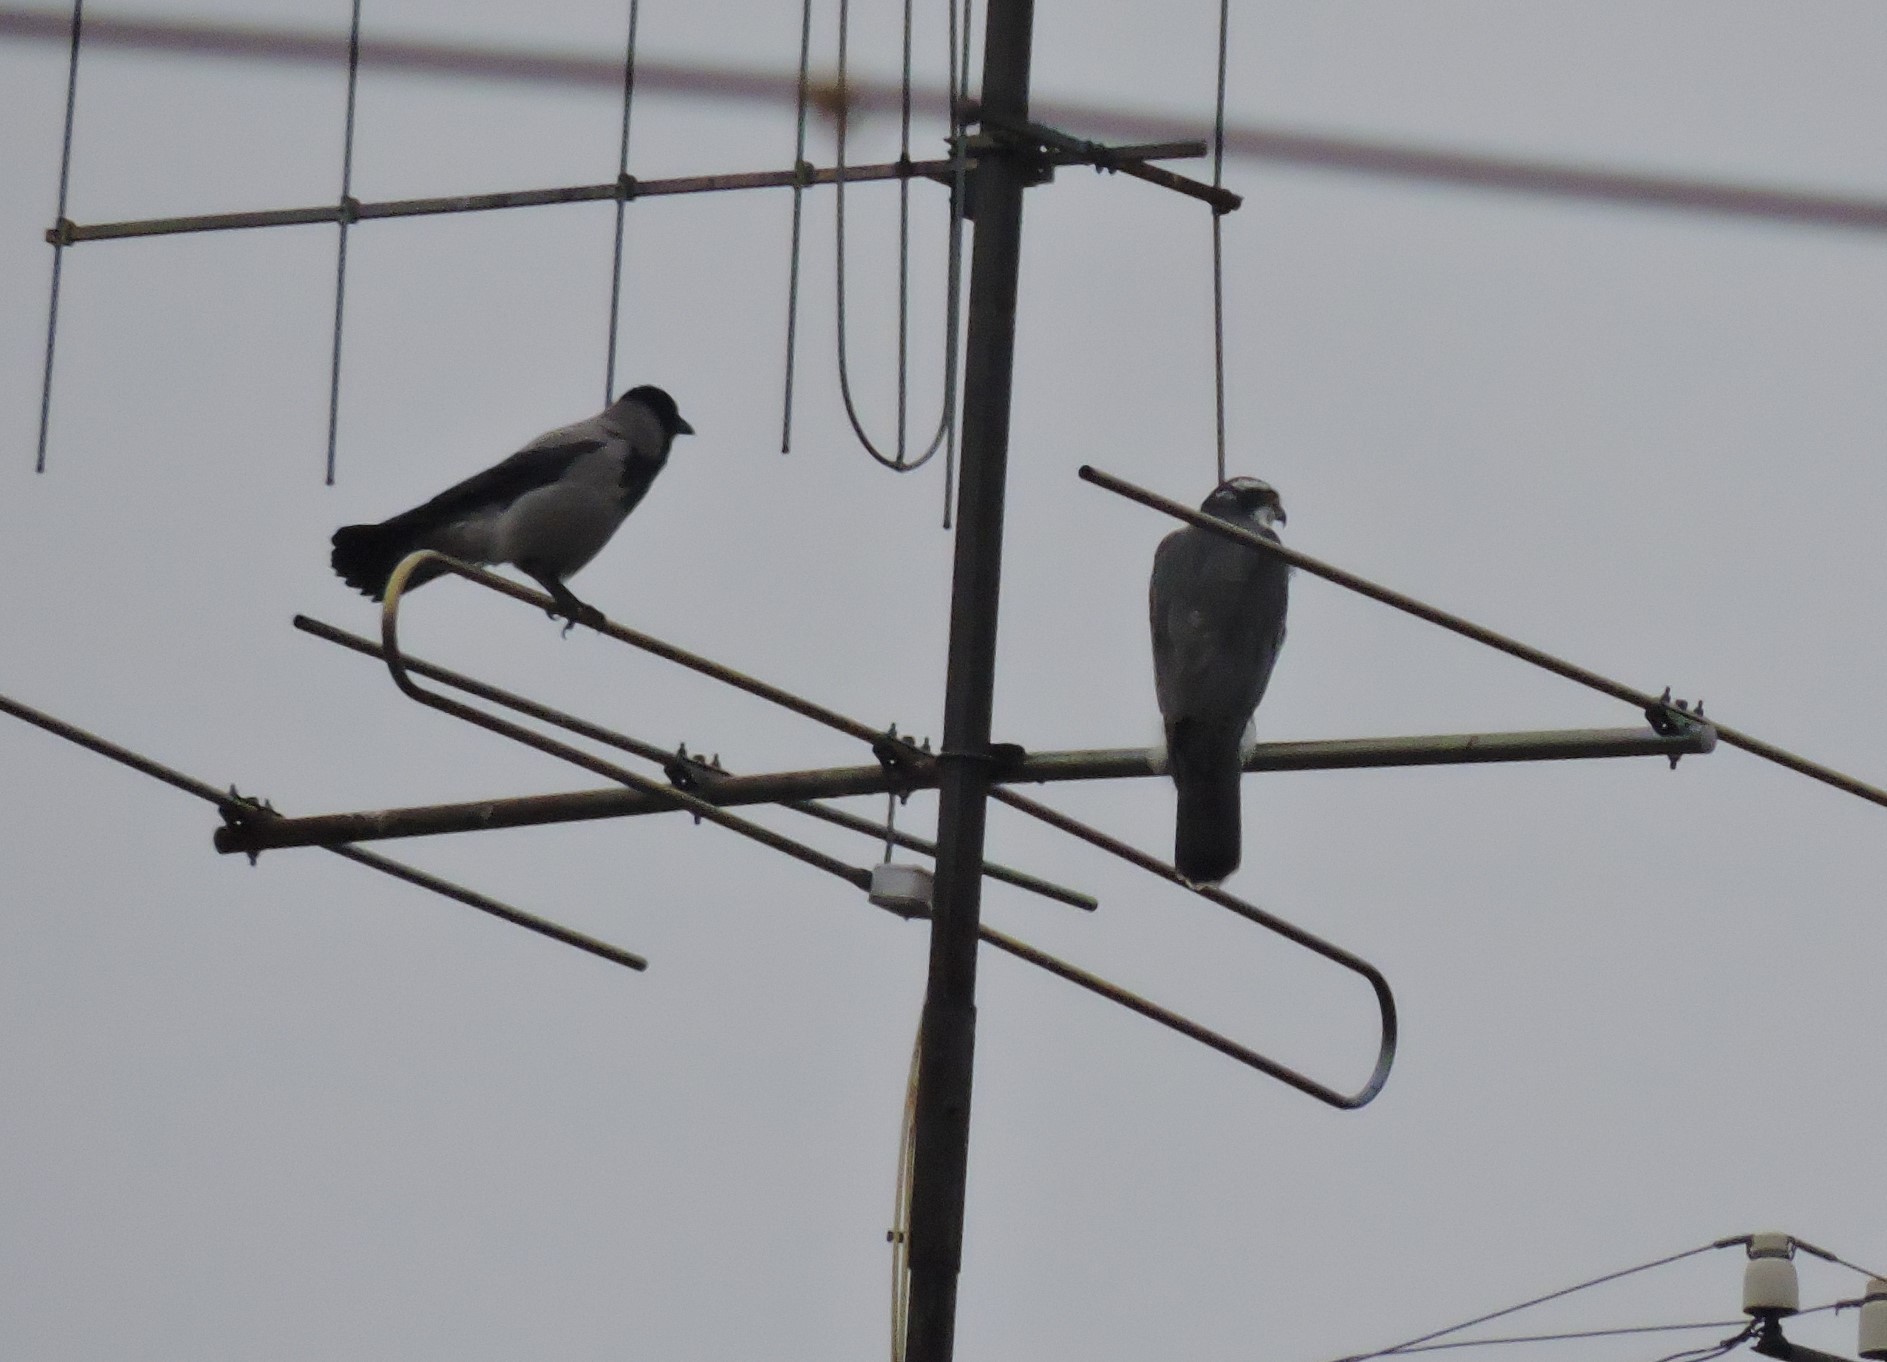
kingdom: Animalia
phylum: Chordata
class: Aves
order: Accipitriformes
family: Accipitridae
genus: Accipiter
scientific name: Accipiter gentilis
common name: Northern goshawk
